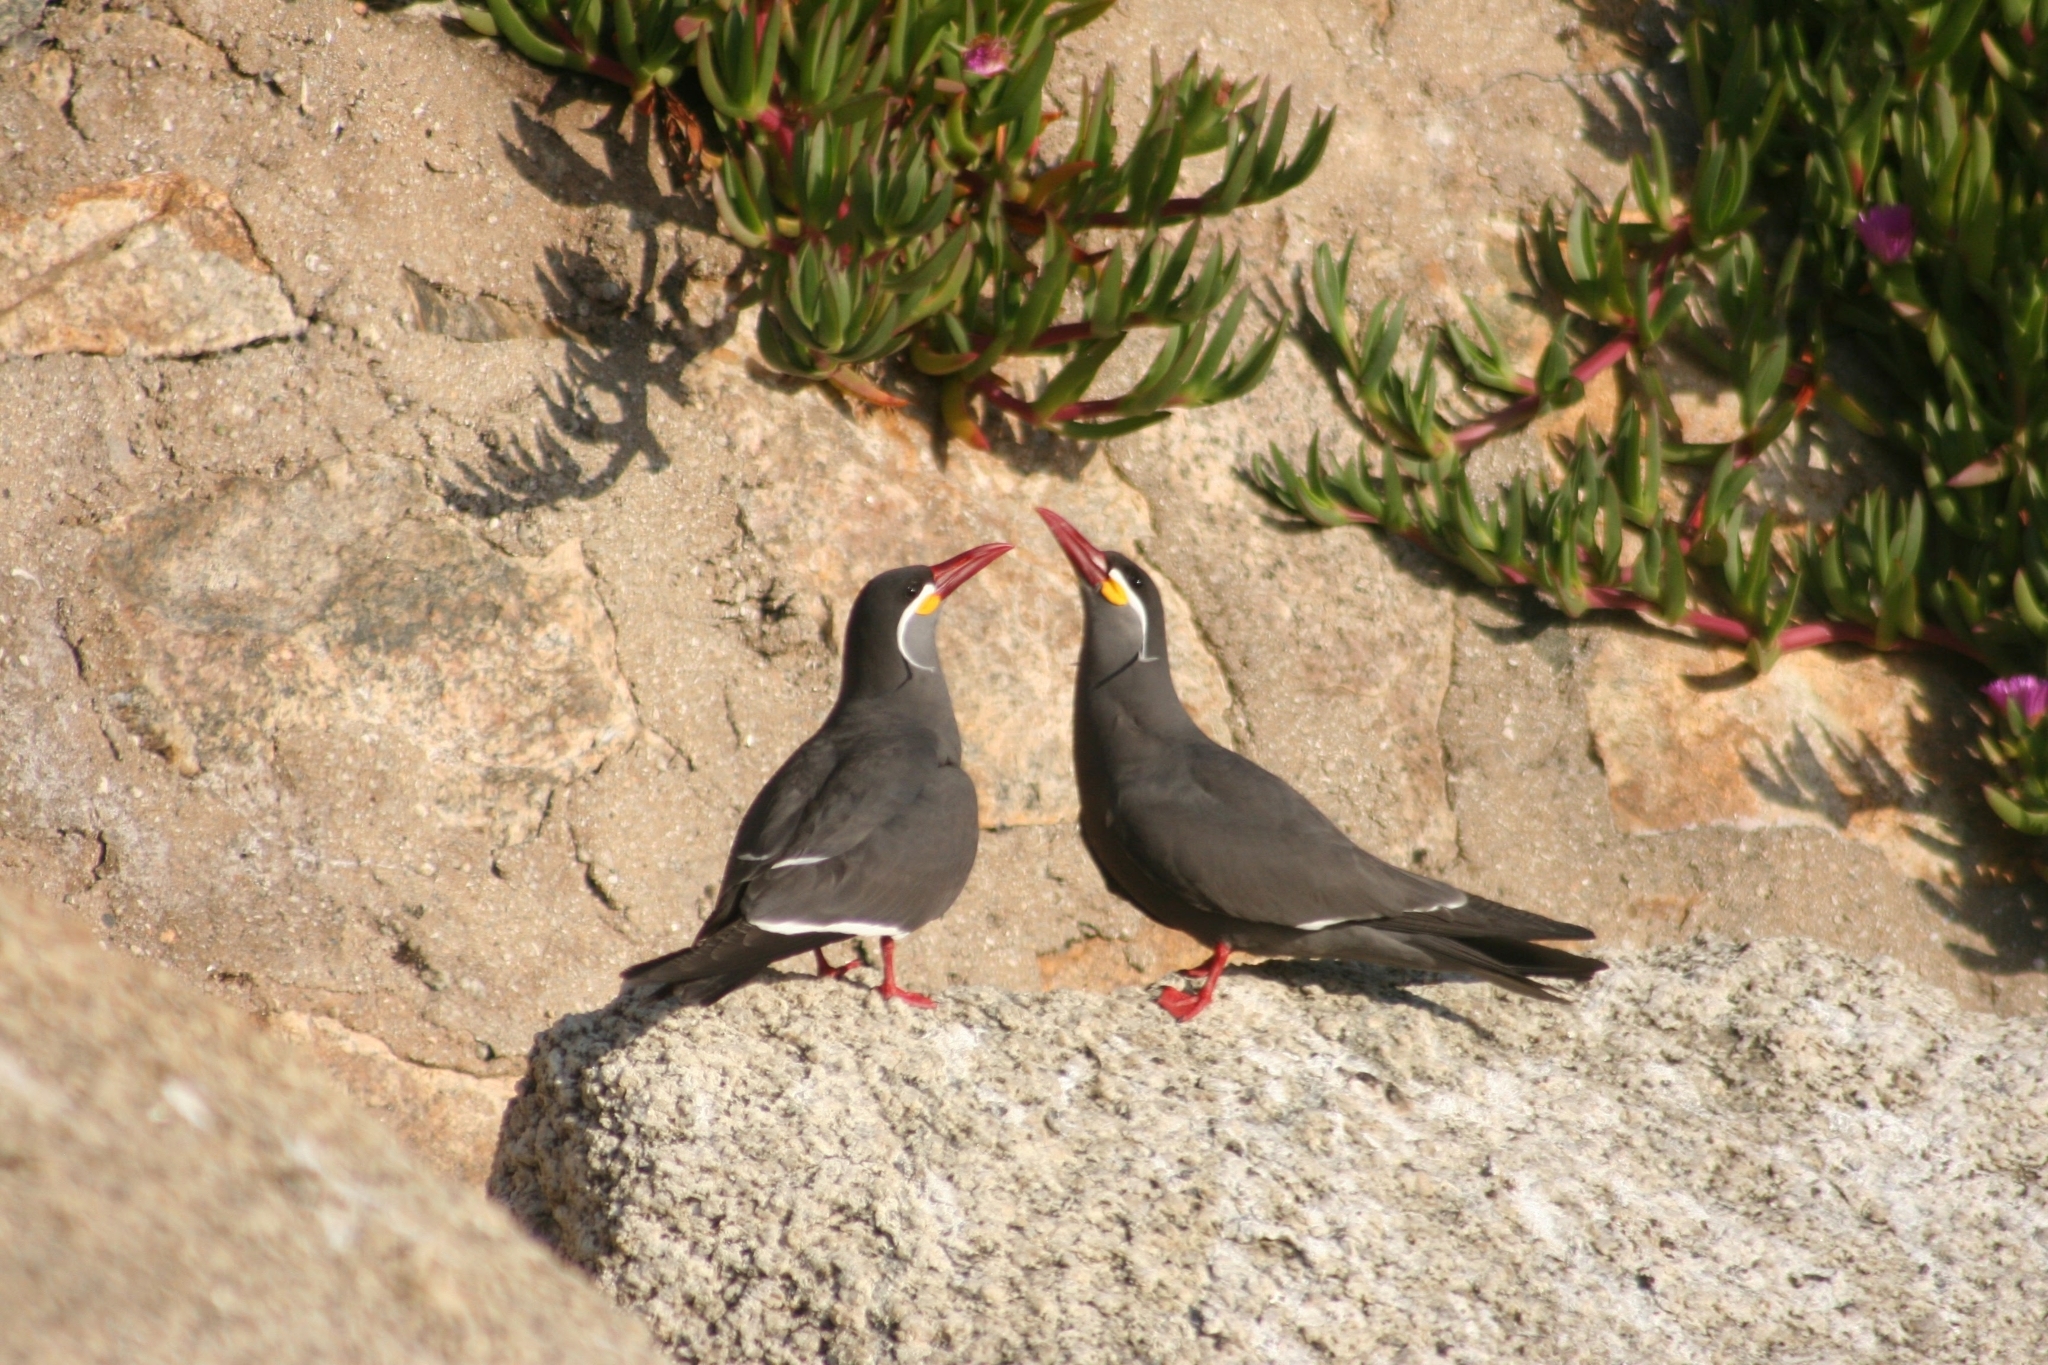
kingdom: Animalia
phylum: Chordata
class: Aves
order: Charadriiformes
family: Laridae
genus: Larosterna
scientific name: Larosterna inca
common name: Inca tern
